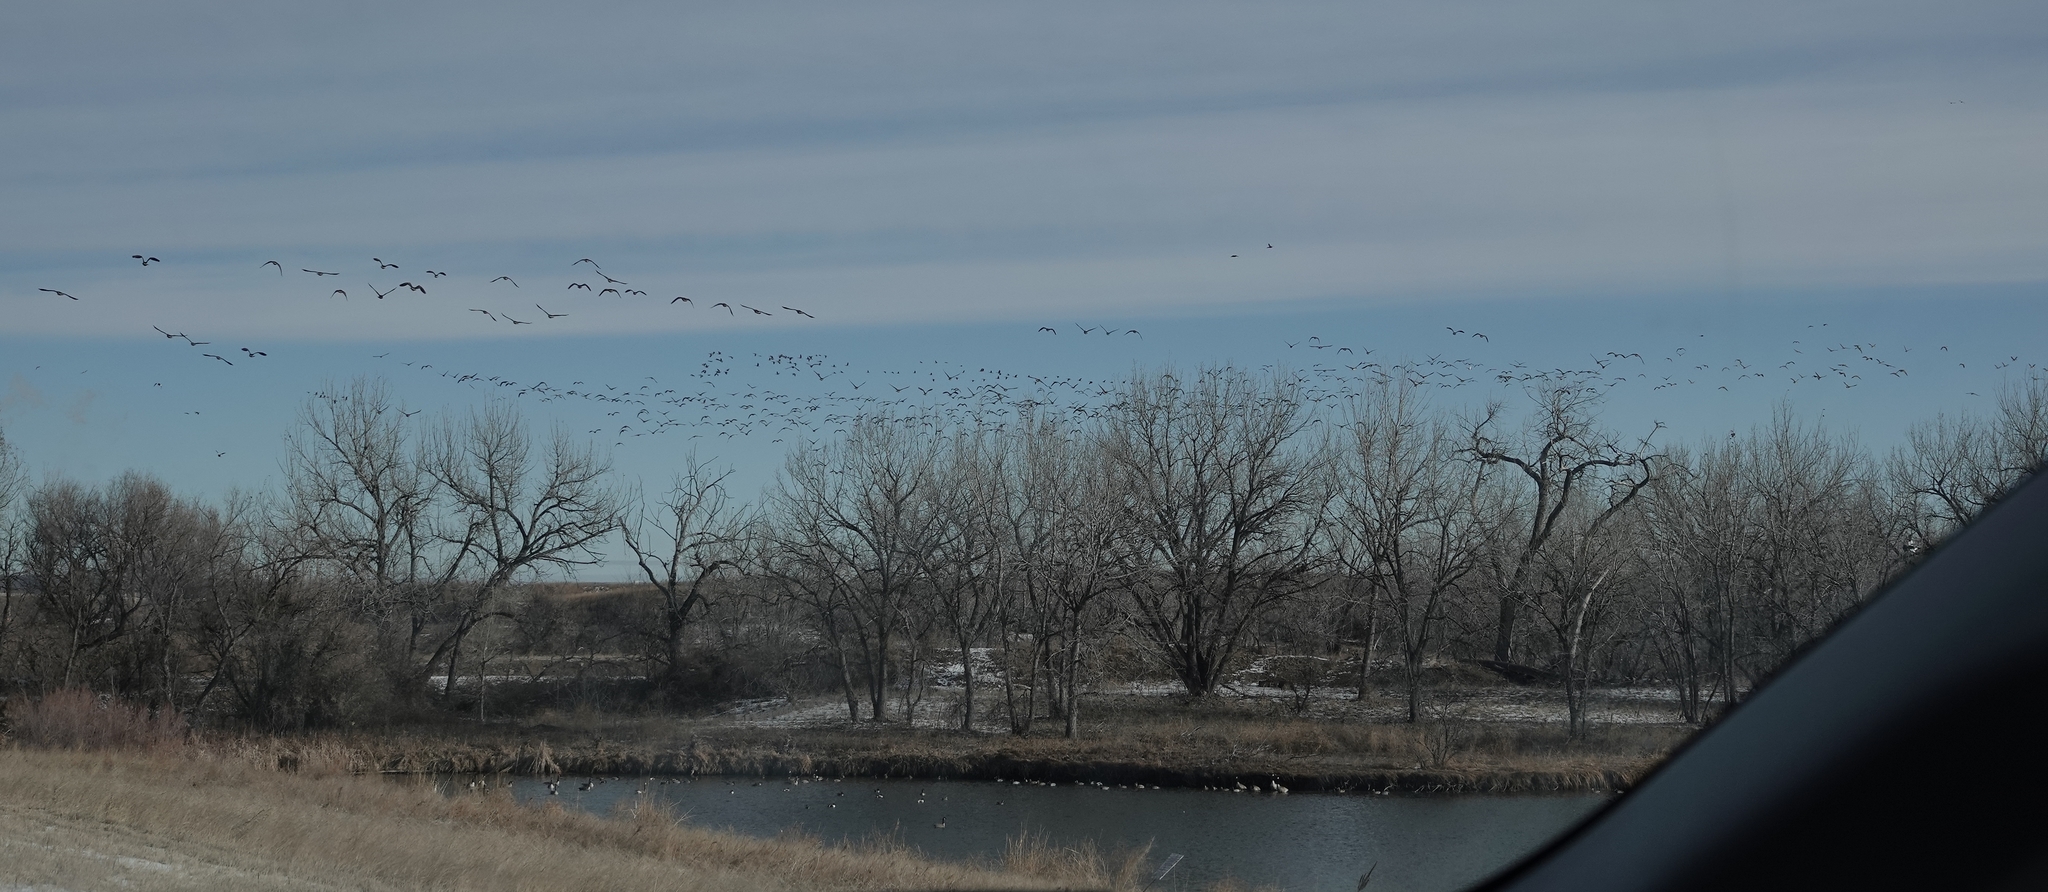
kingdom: Animalia
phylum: Chordata
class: Aves
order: Anseriformes
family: Anatidae
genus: Branta
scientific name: Branta canadensis
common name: Canada goose
